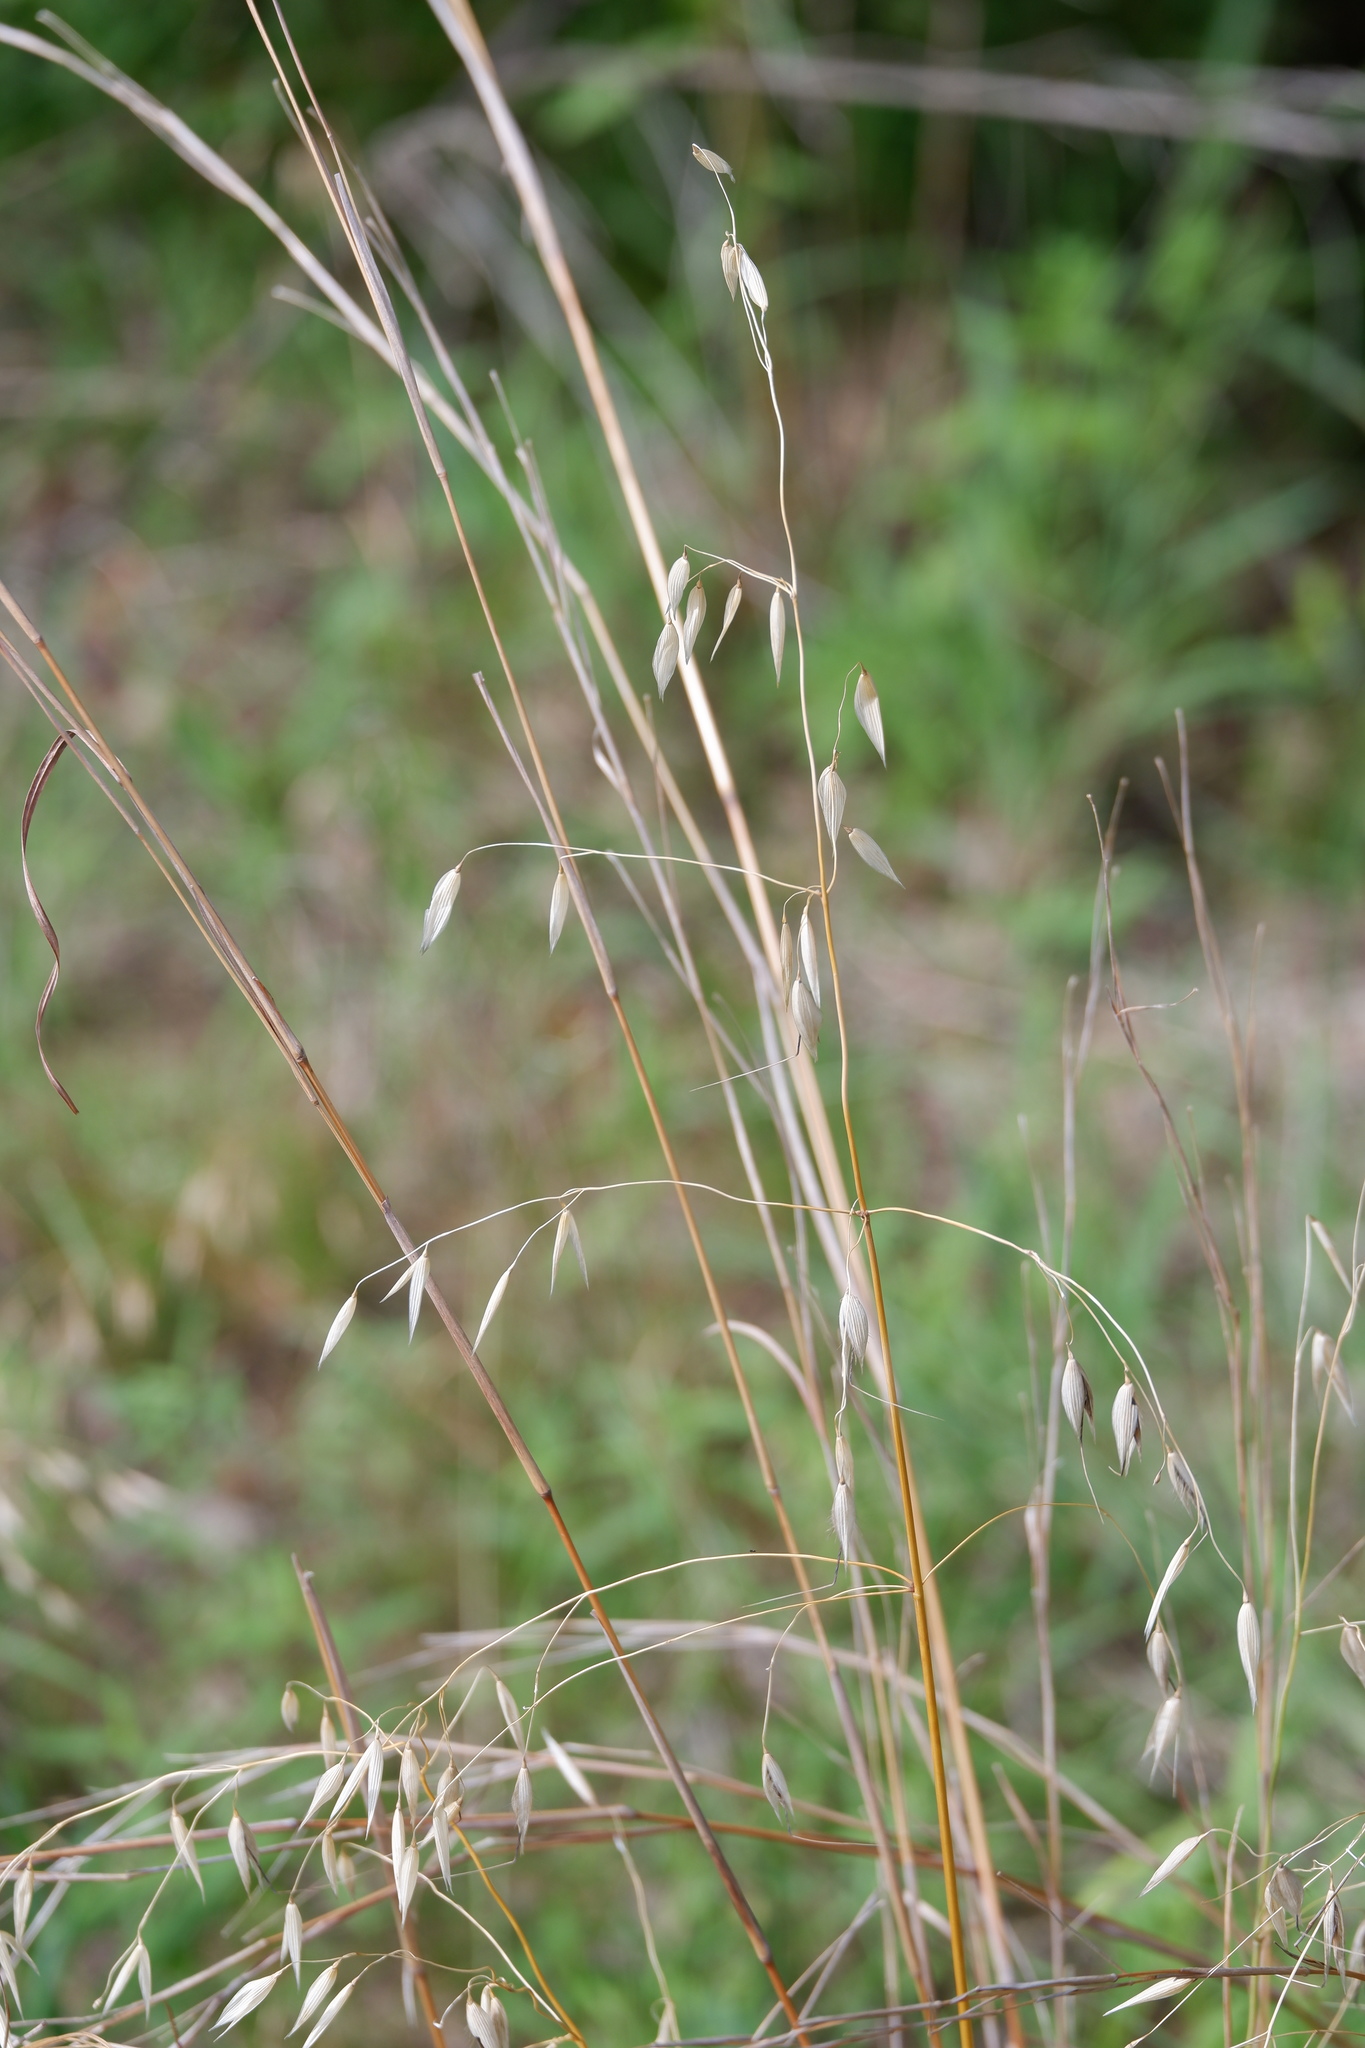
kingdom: Plantae
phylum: Tracheophyta
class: Liliopsida
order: Poales
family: Poaceae
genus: Avena
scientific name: Avena fatua
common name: Wild oat
